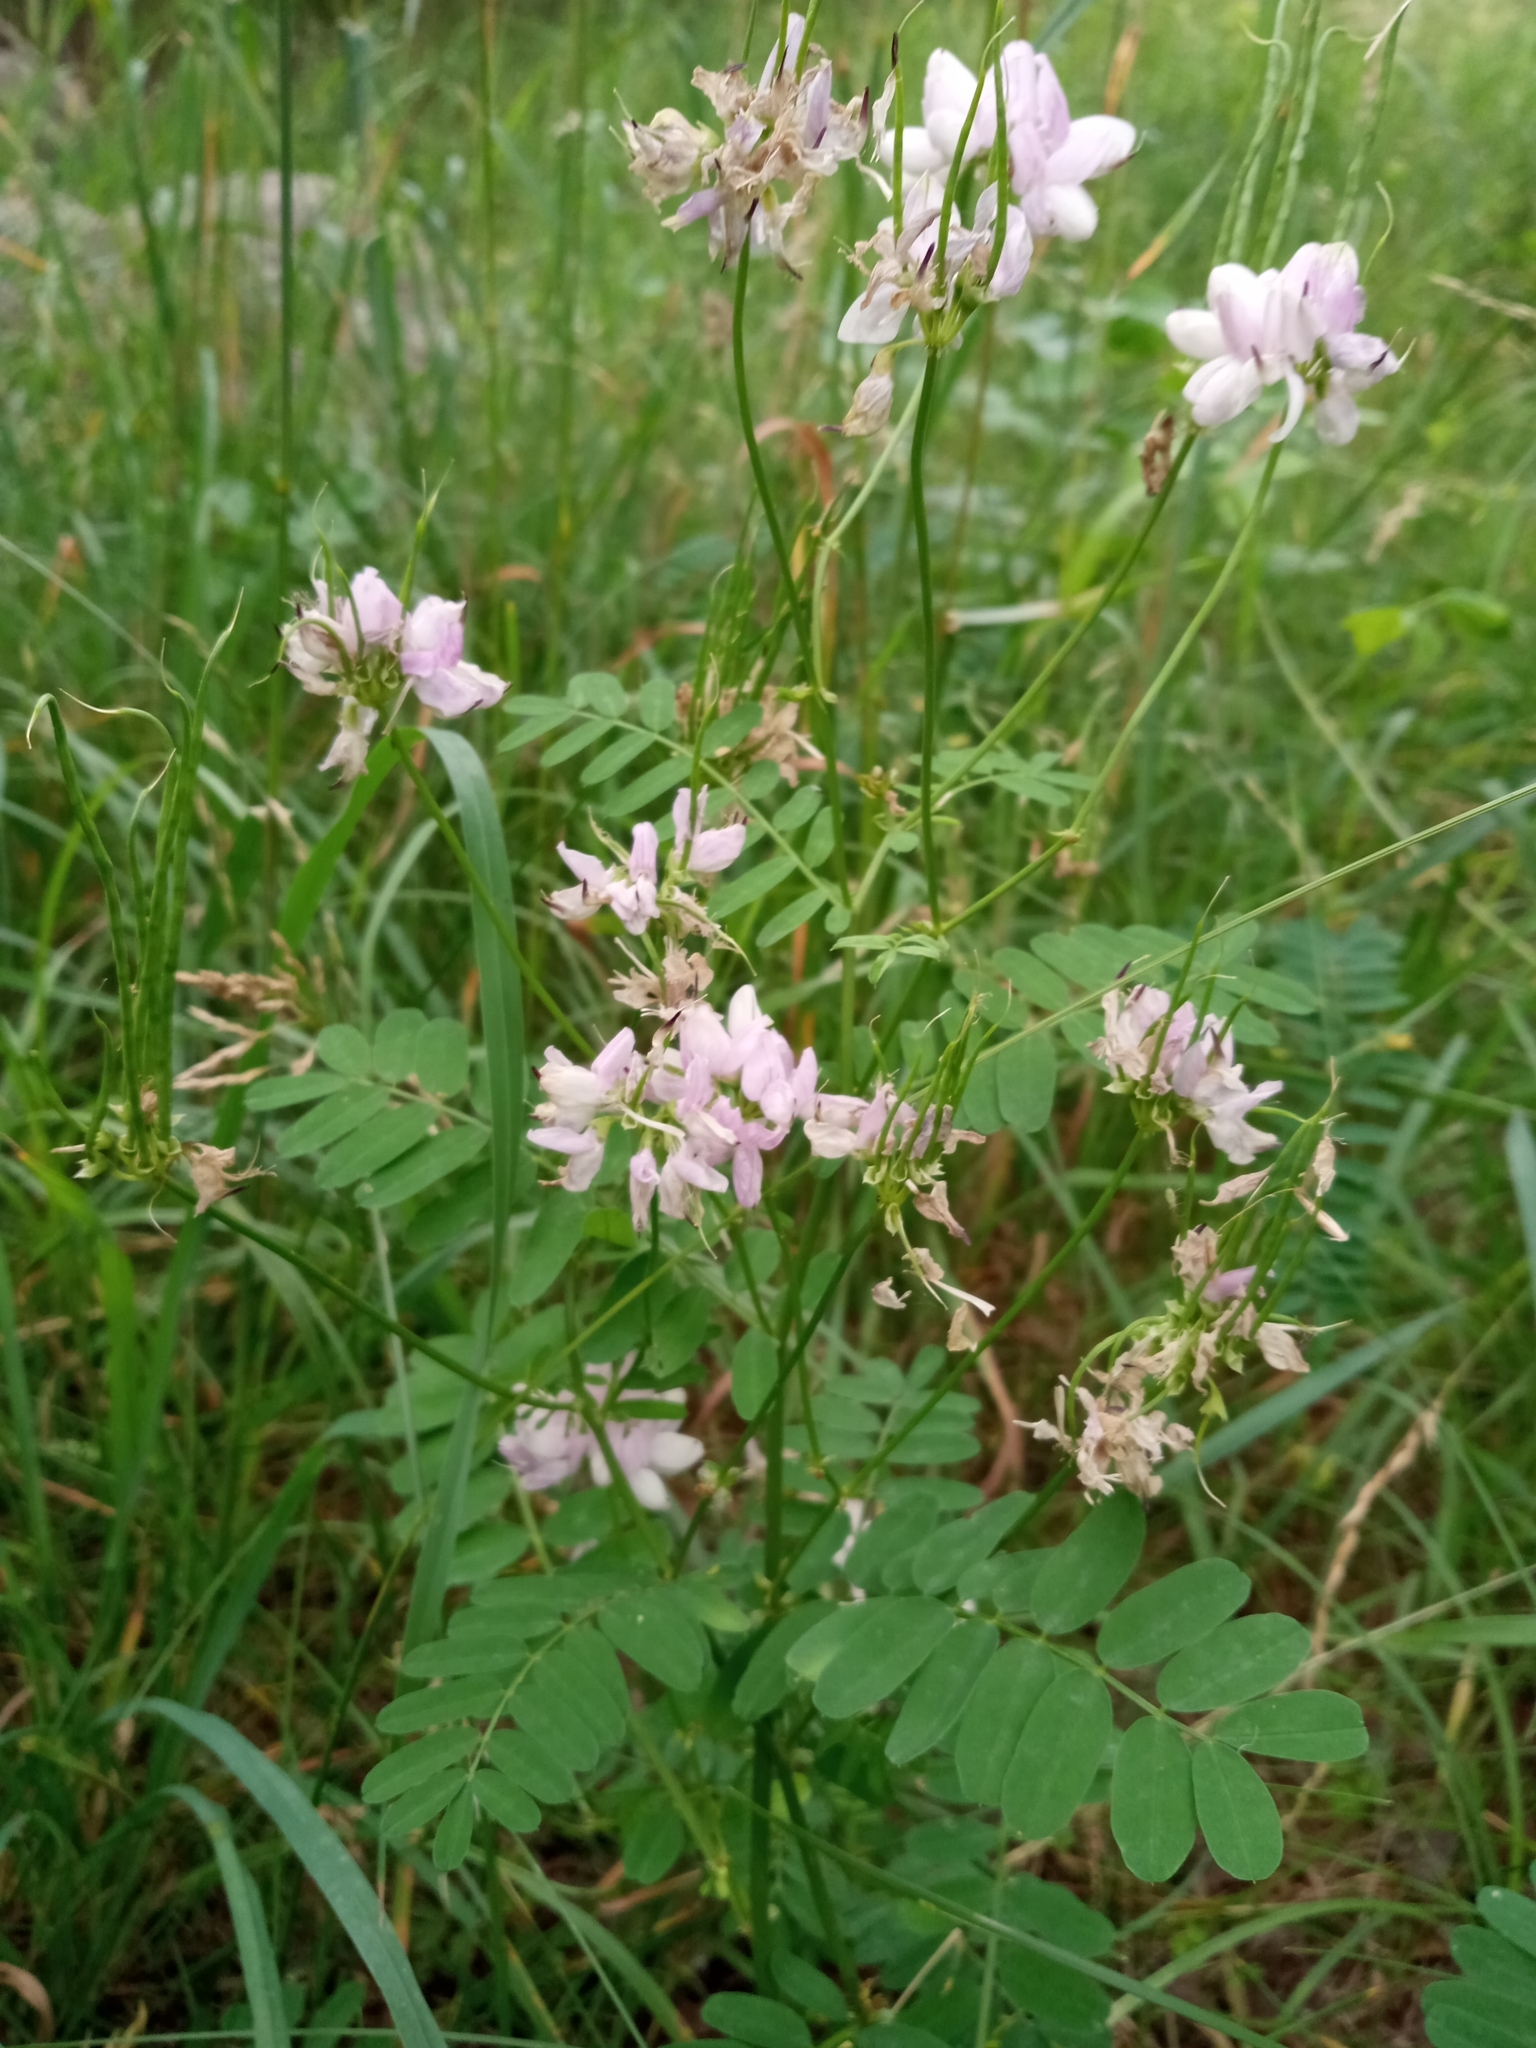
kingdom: Plantae
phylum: Tracheophyta
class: Magnoliopsida
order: Fabales
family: Fabaceae
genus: Coronilla
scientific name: Coronilla varia
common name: Crownvetch
